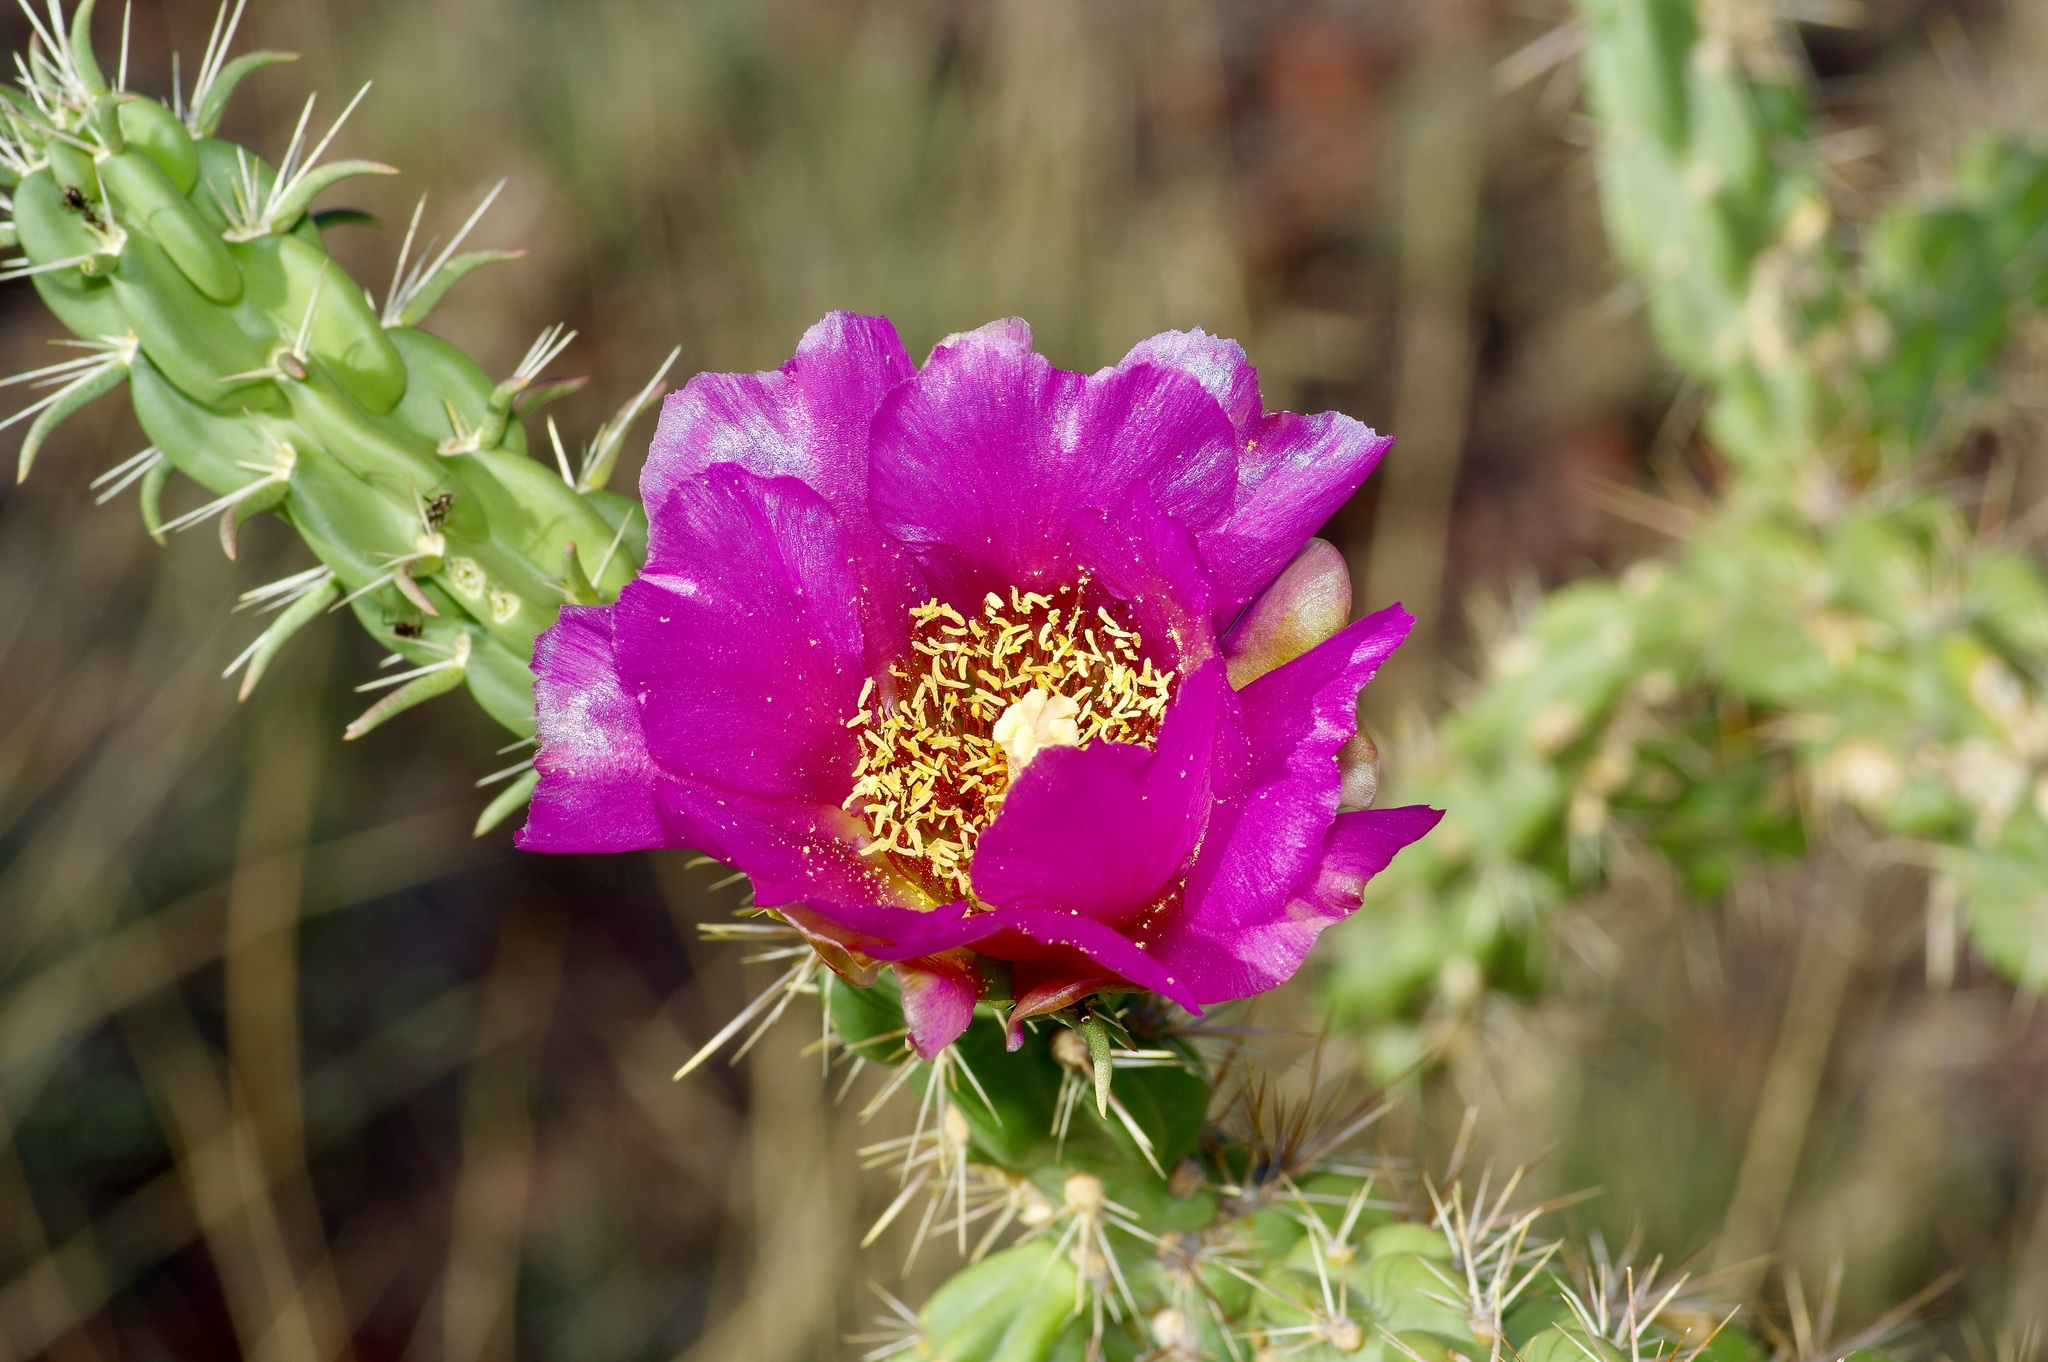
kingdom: Plantae
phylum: Tracheophyta
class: Magnoliopsida
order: Caryophyllales
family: Cactaceae
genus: Cylindropuntia
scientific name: Cylindropuntia imbricata
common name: Candelabrum cactus
